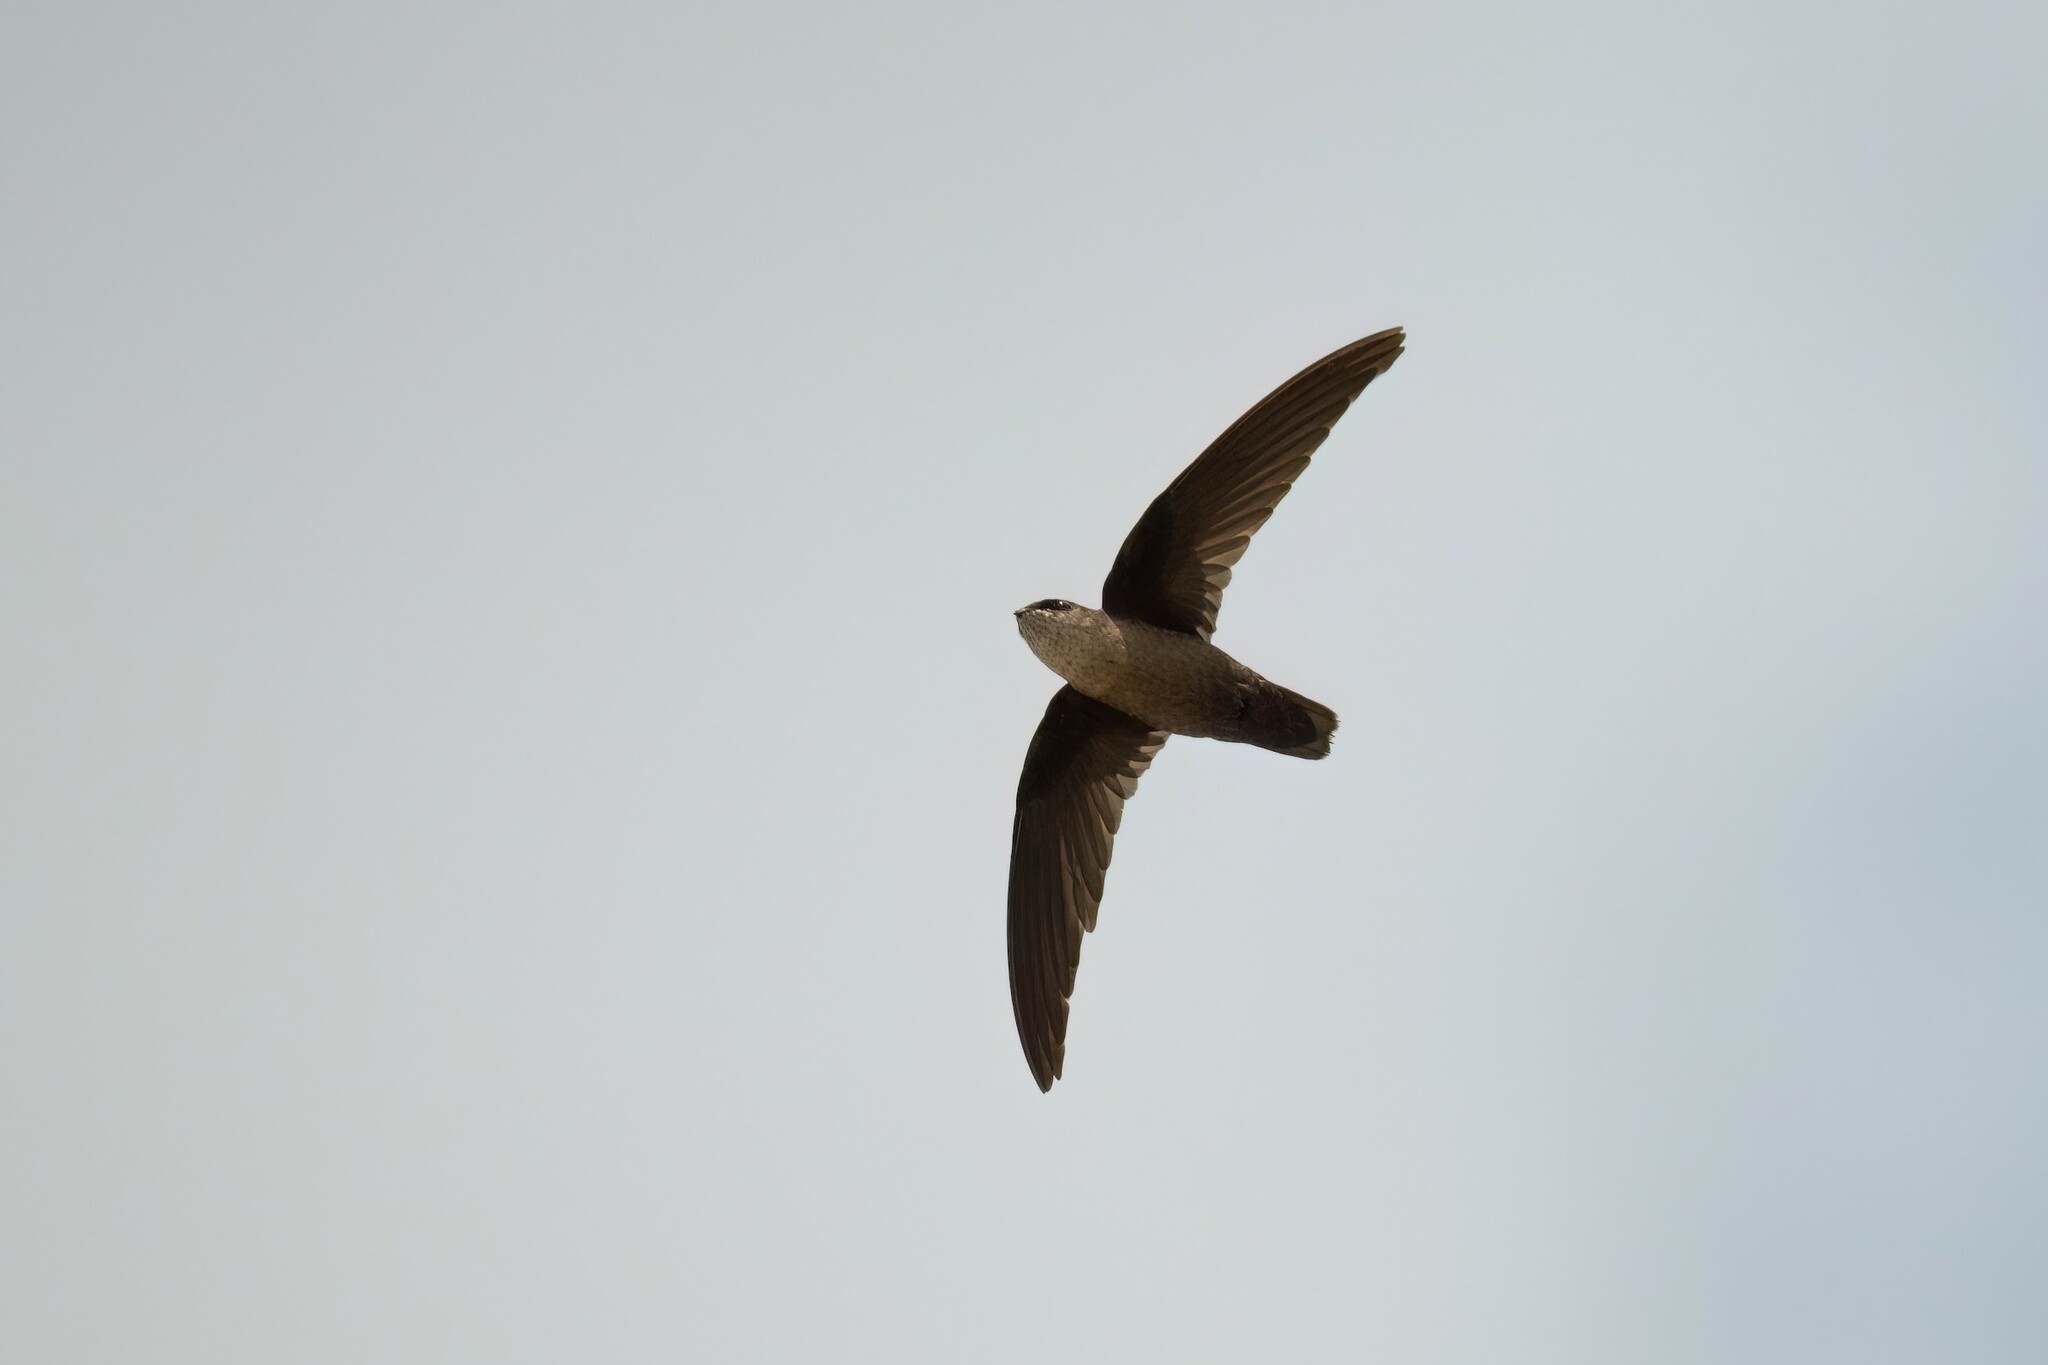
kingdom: Animalia
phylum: Chordata
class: Aves
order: Apodiformes
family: Apodidae
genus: Chaetura
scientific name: Chaetura vauxi
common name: Vaux's swift
